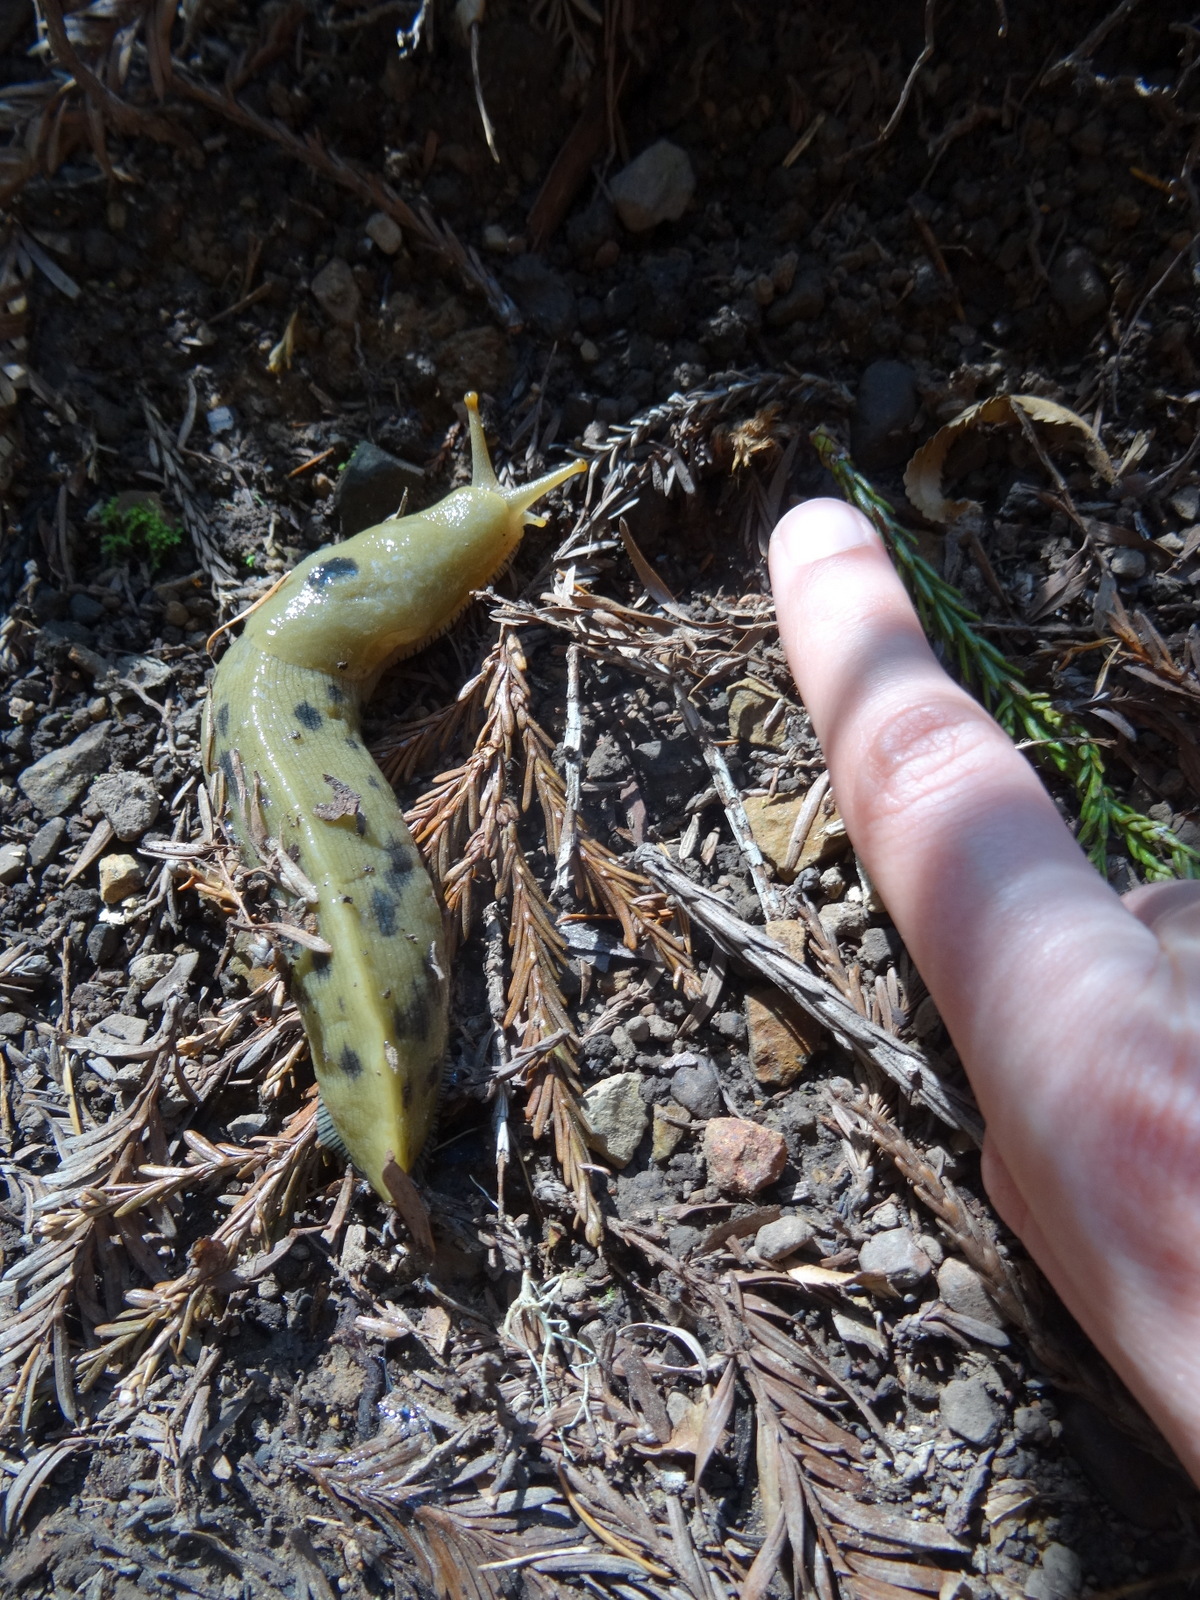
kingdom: Animalia
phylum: Mollusca
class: Gastropoda
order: Stylommatophora
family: Ariolimacidae
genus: Ariolimax
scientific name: Ariolimax buttoni
